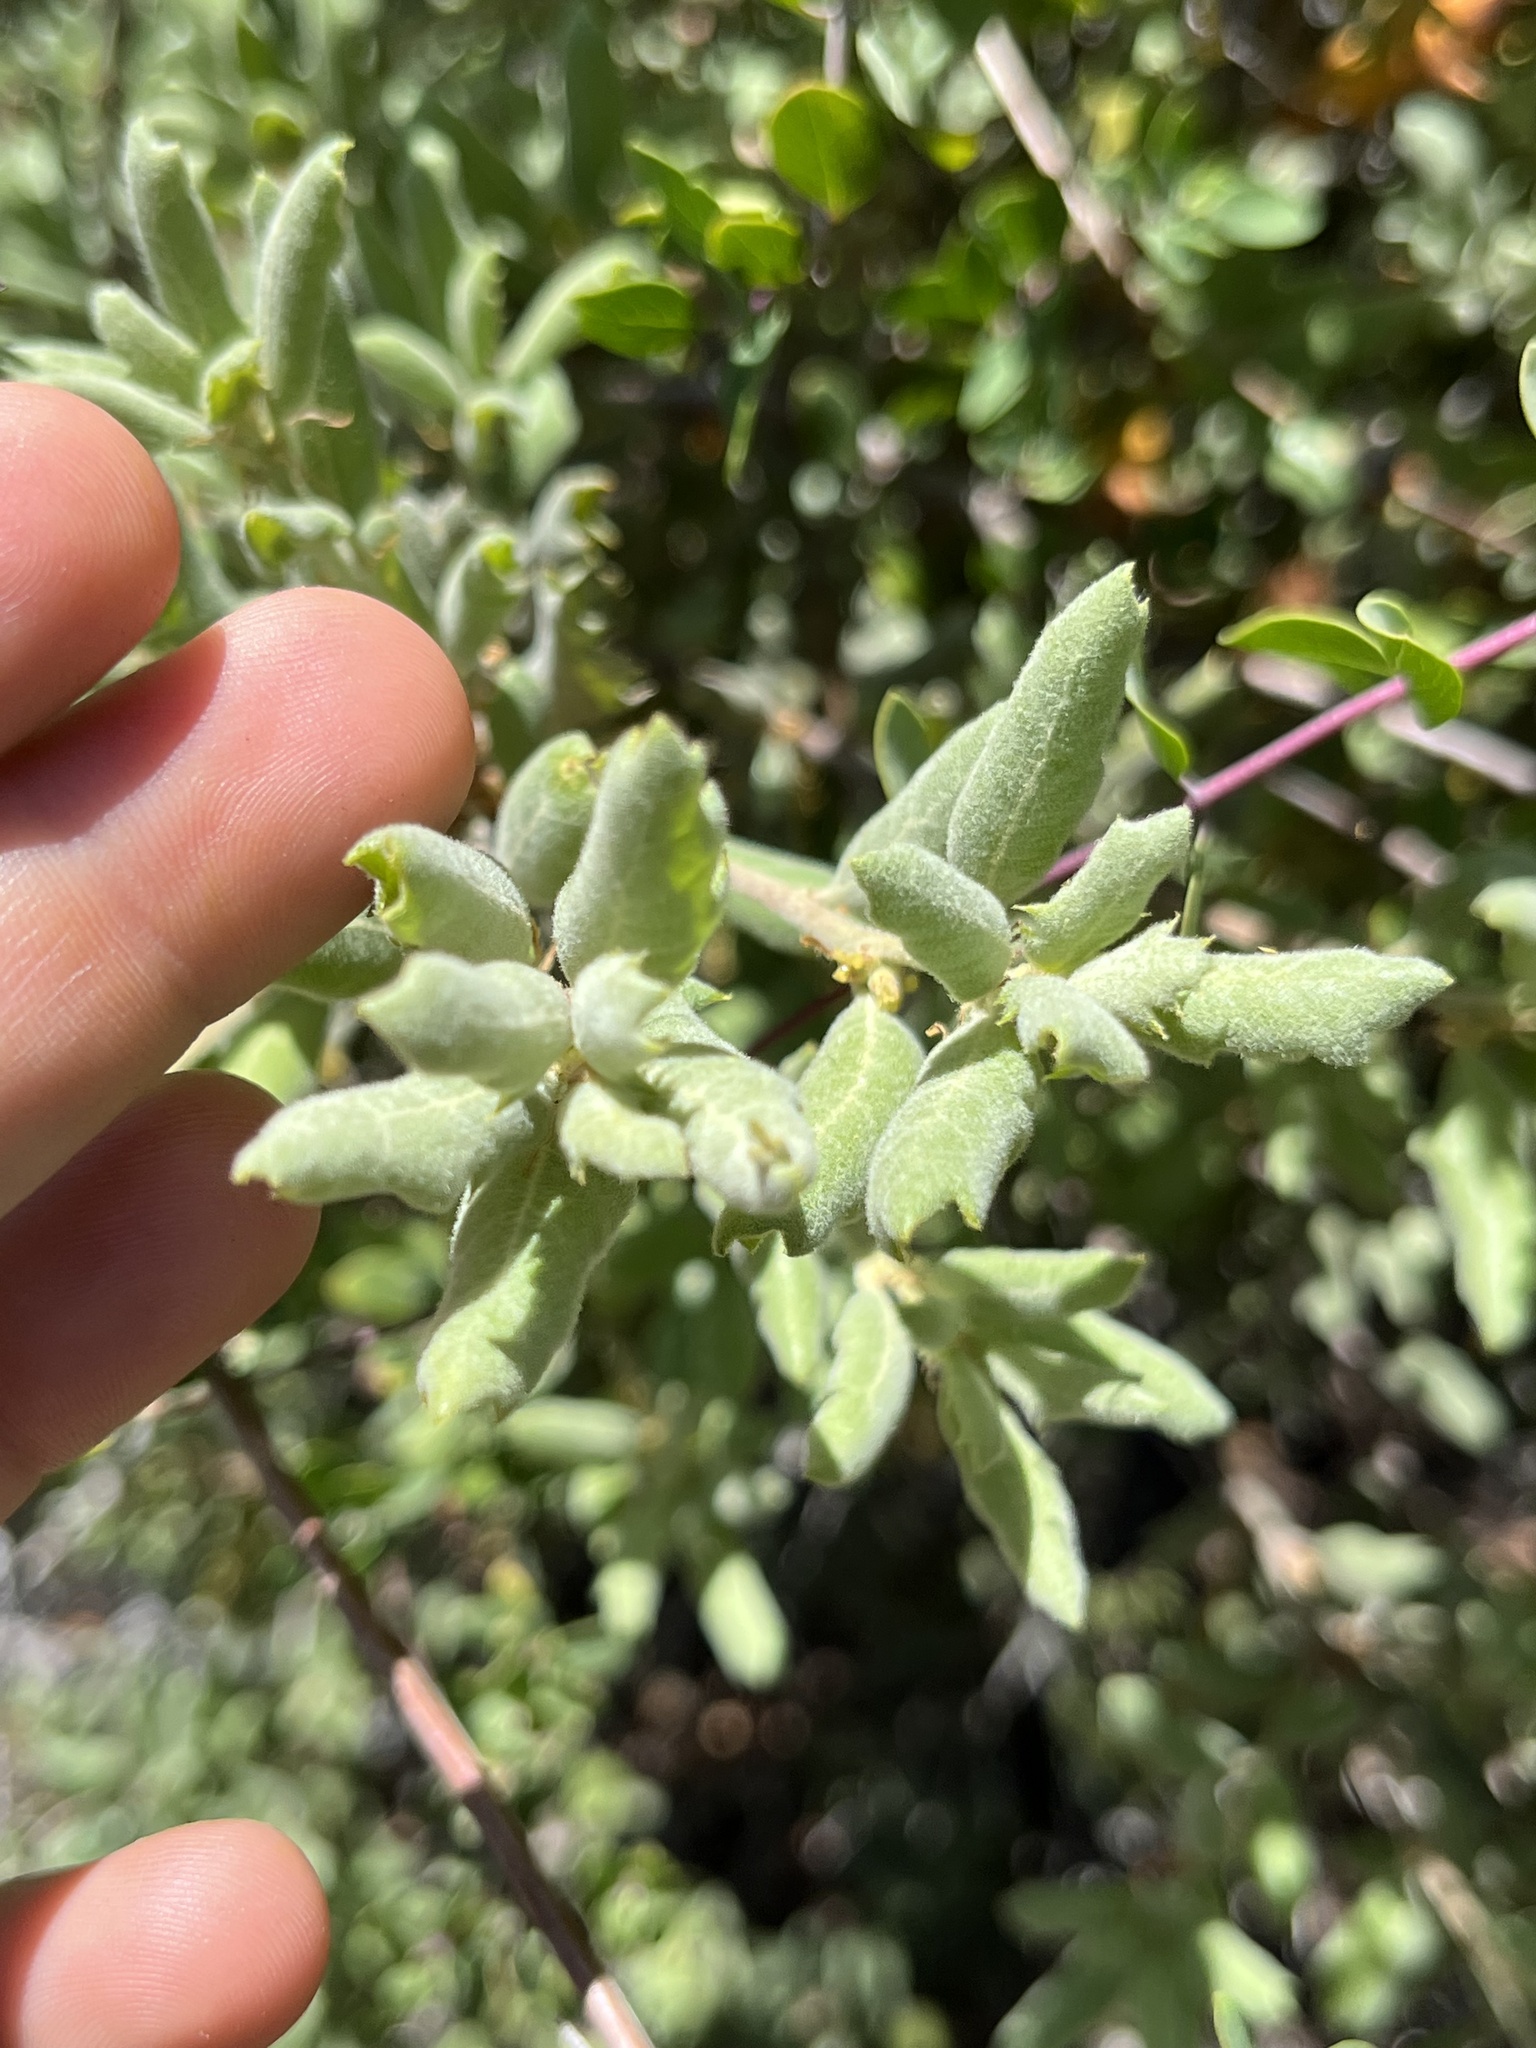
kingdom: Plantae
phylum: Tracheophyta
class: Magnoliopsida
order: Fagales
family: Fagaceae
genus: Quercus
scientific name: Quercus durata
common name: Leather oak
